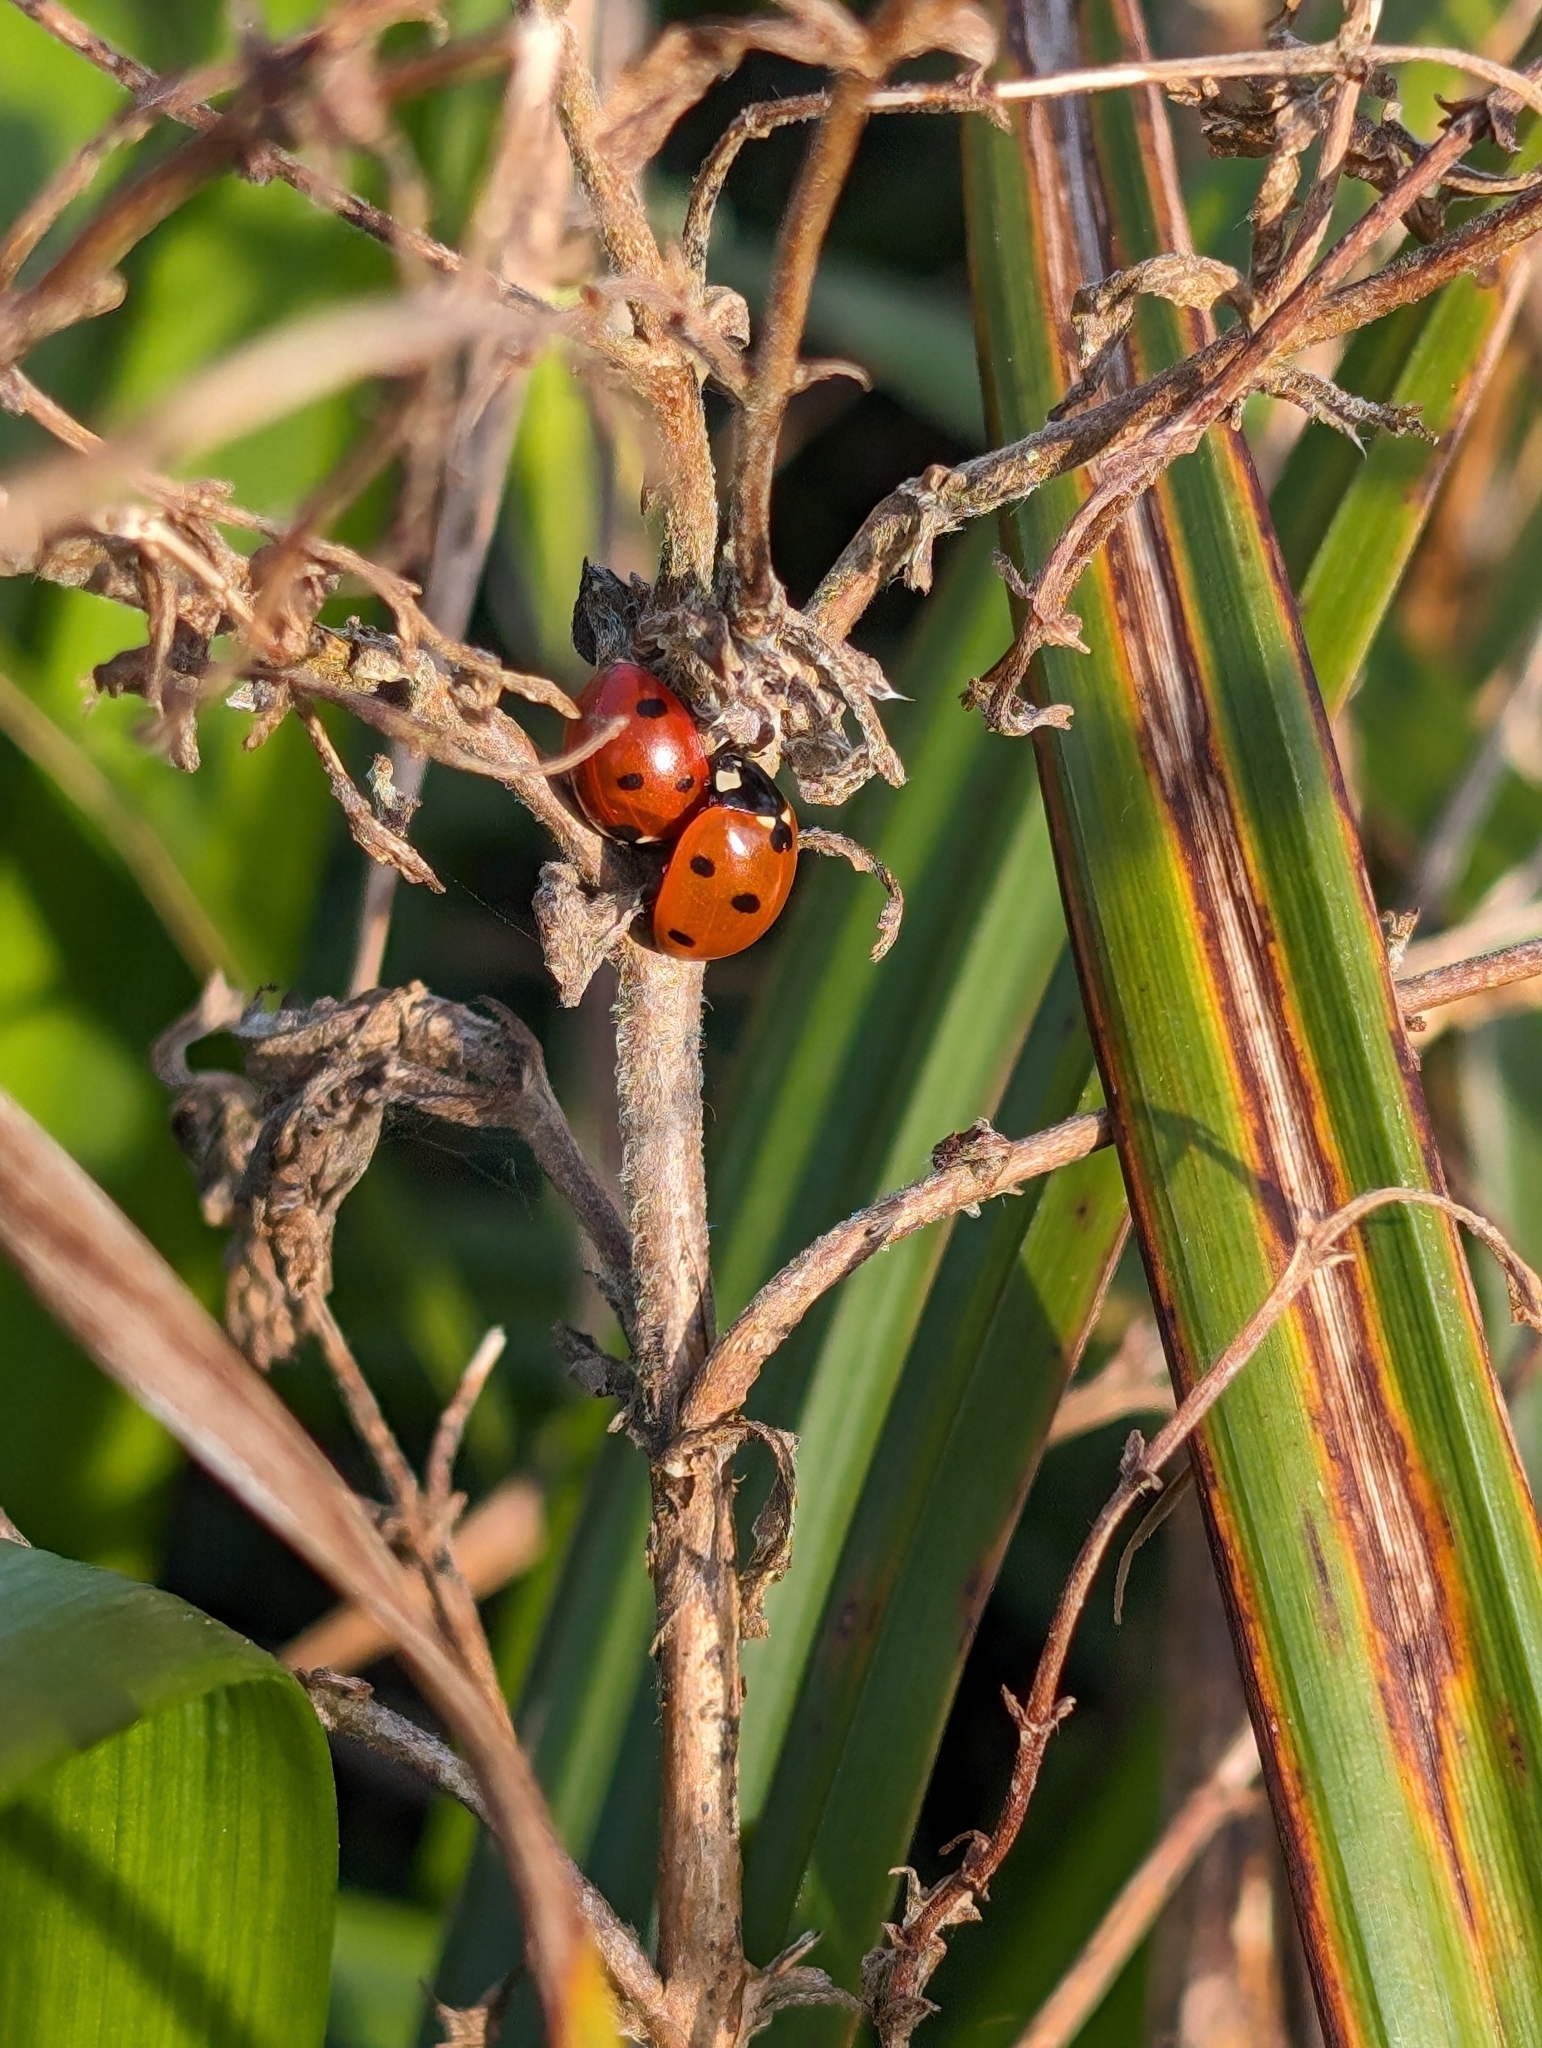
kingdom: Animalia
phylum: Arthropoda
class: Insecta
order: Coleoptera
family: Coccinellidae
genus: Coccinella
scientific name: Coccinella septempunctata
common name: Sevenspotted lady beetle
